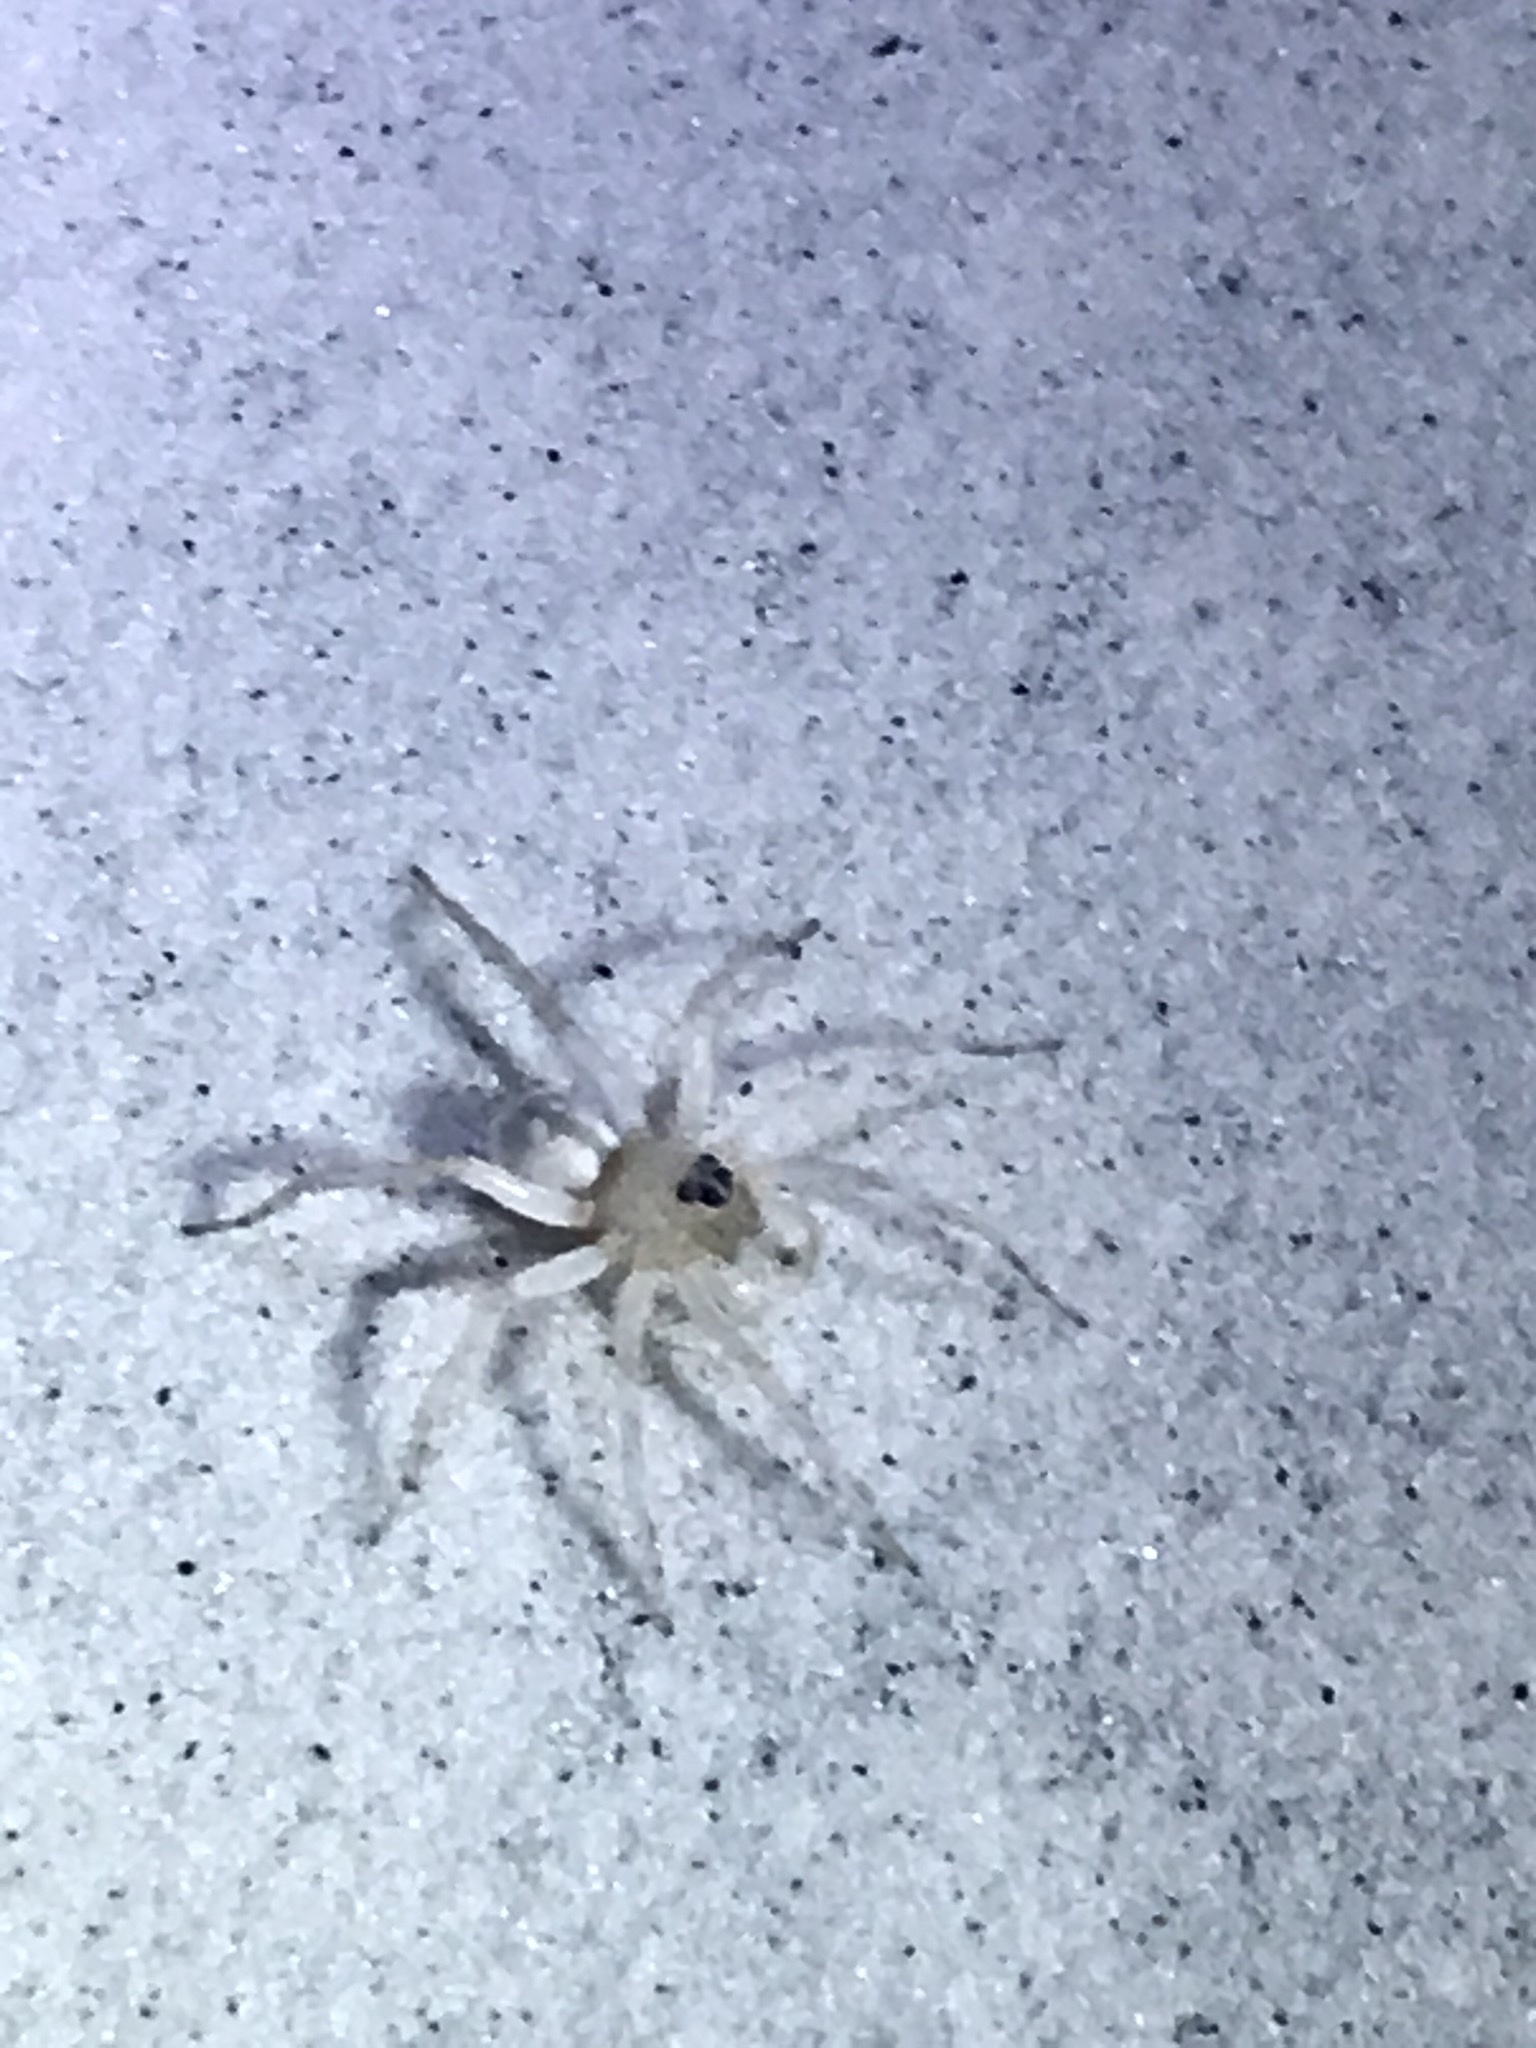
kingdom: Animalia
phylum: Arthropoda
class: Arachnida
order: Araneae
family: Lycosidae
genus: Arctosa
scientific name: Arctosa sanctaerosae
